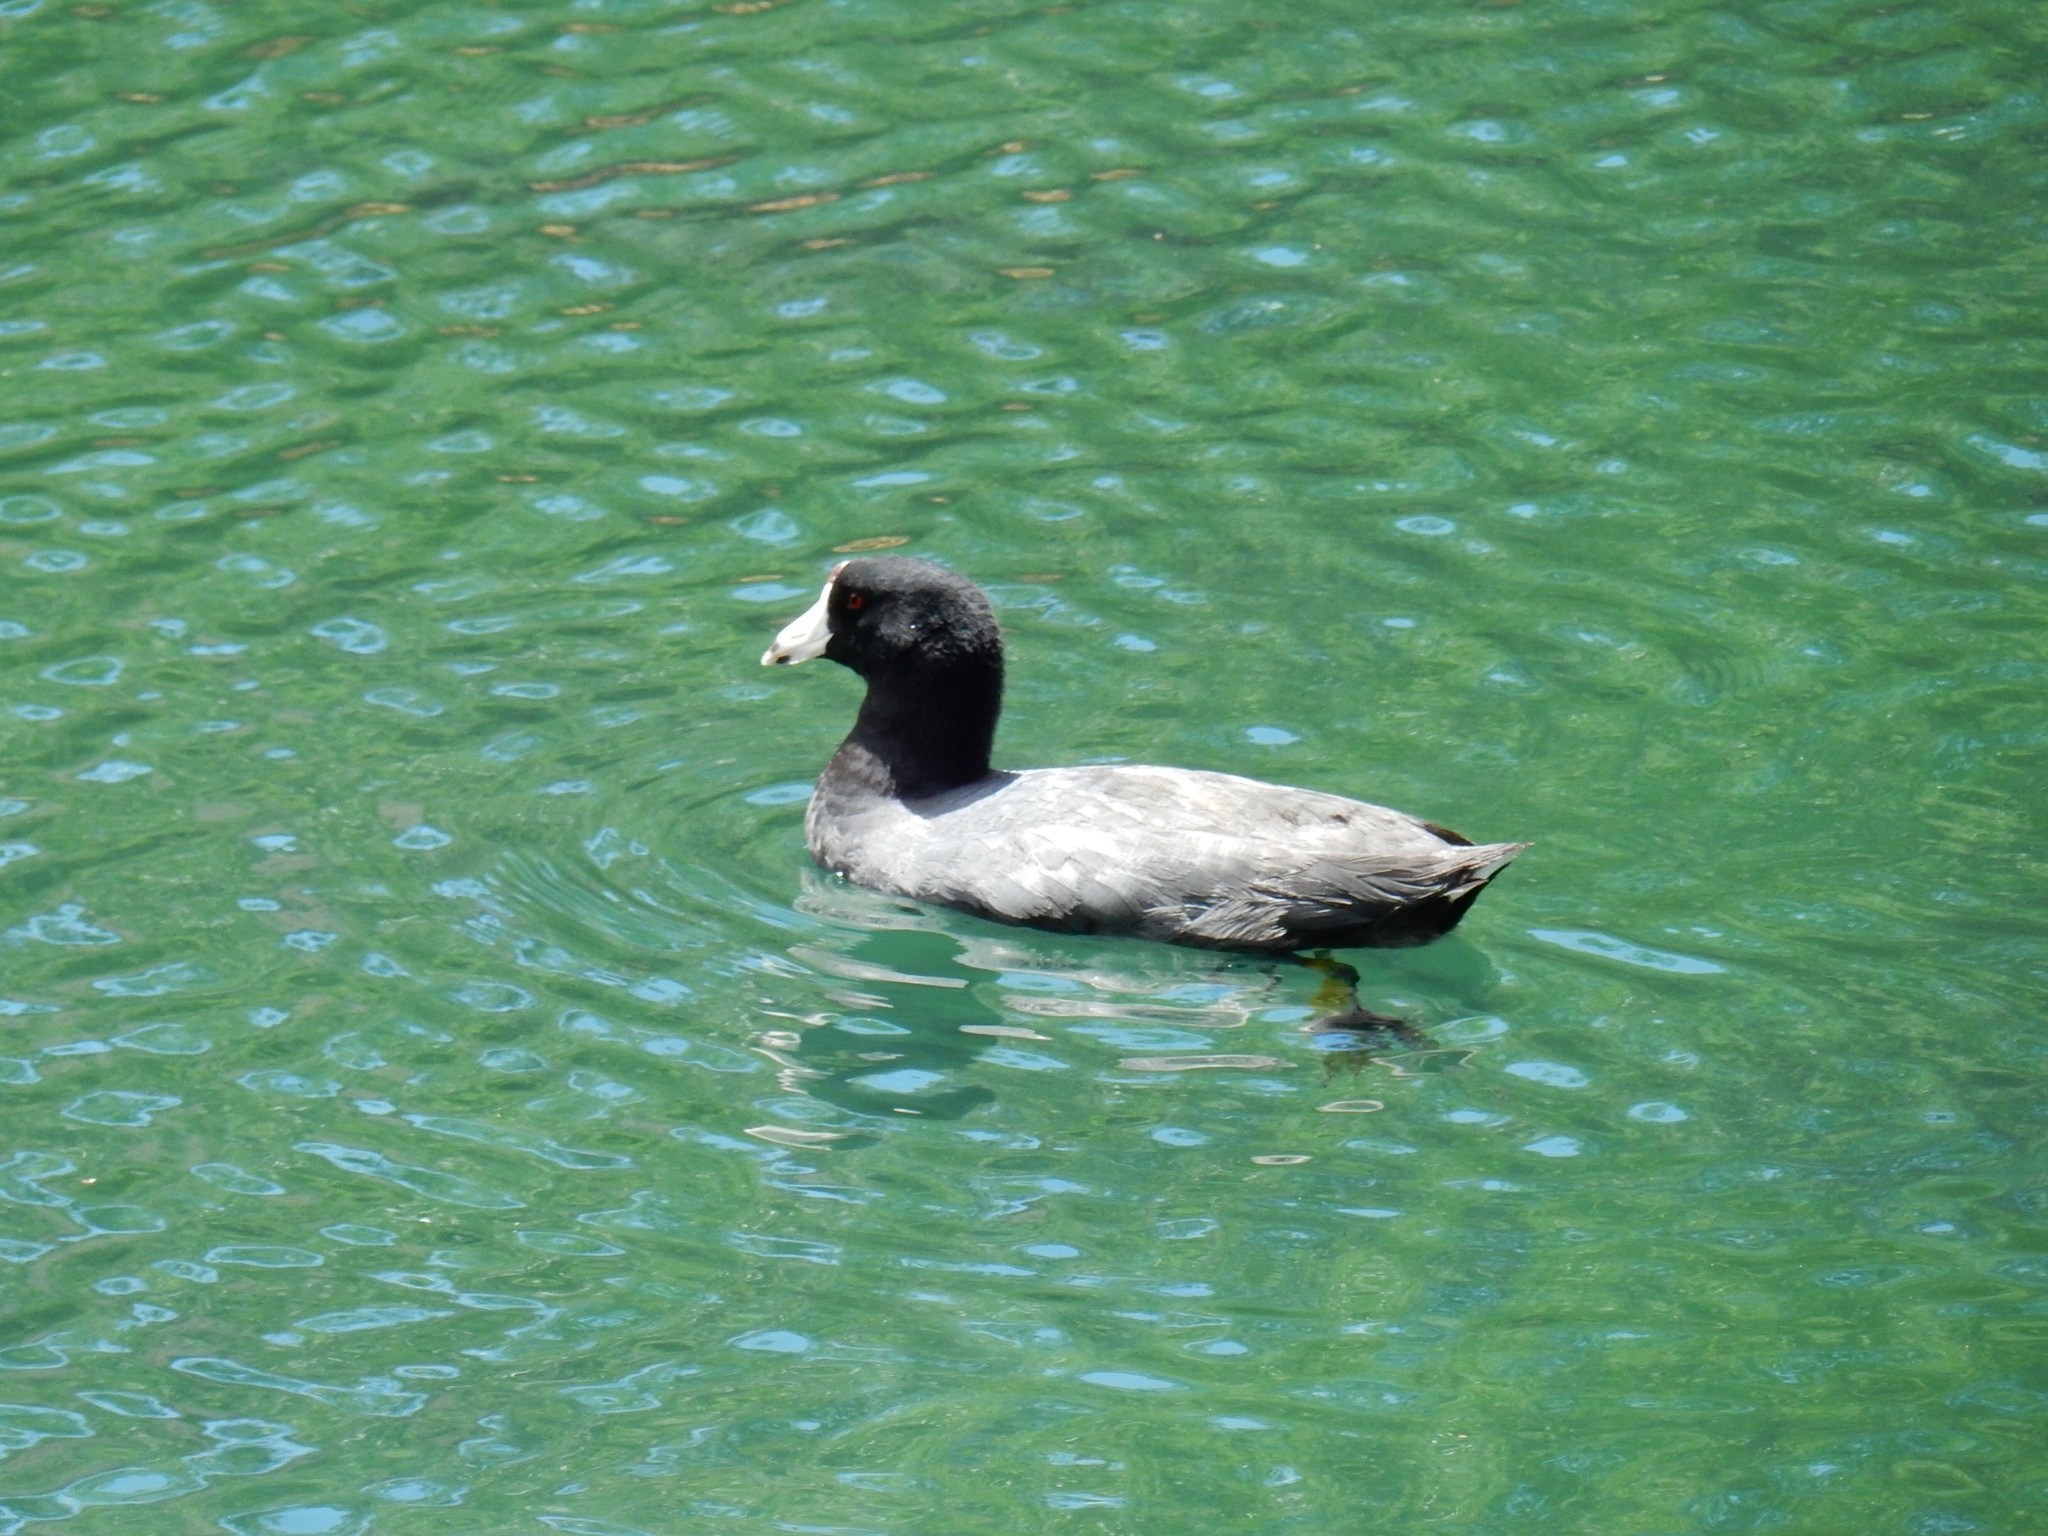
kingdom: Animalia
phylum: Chordata
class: Aves
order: Gruiformes
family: Rallidae
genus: Fulica
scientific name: Fulica americana
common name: American coot
